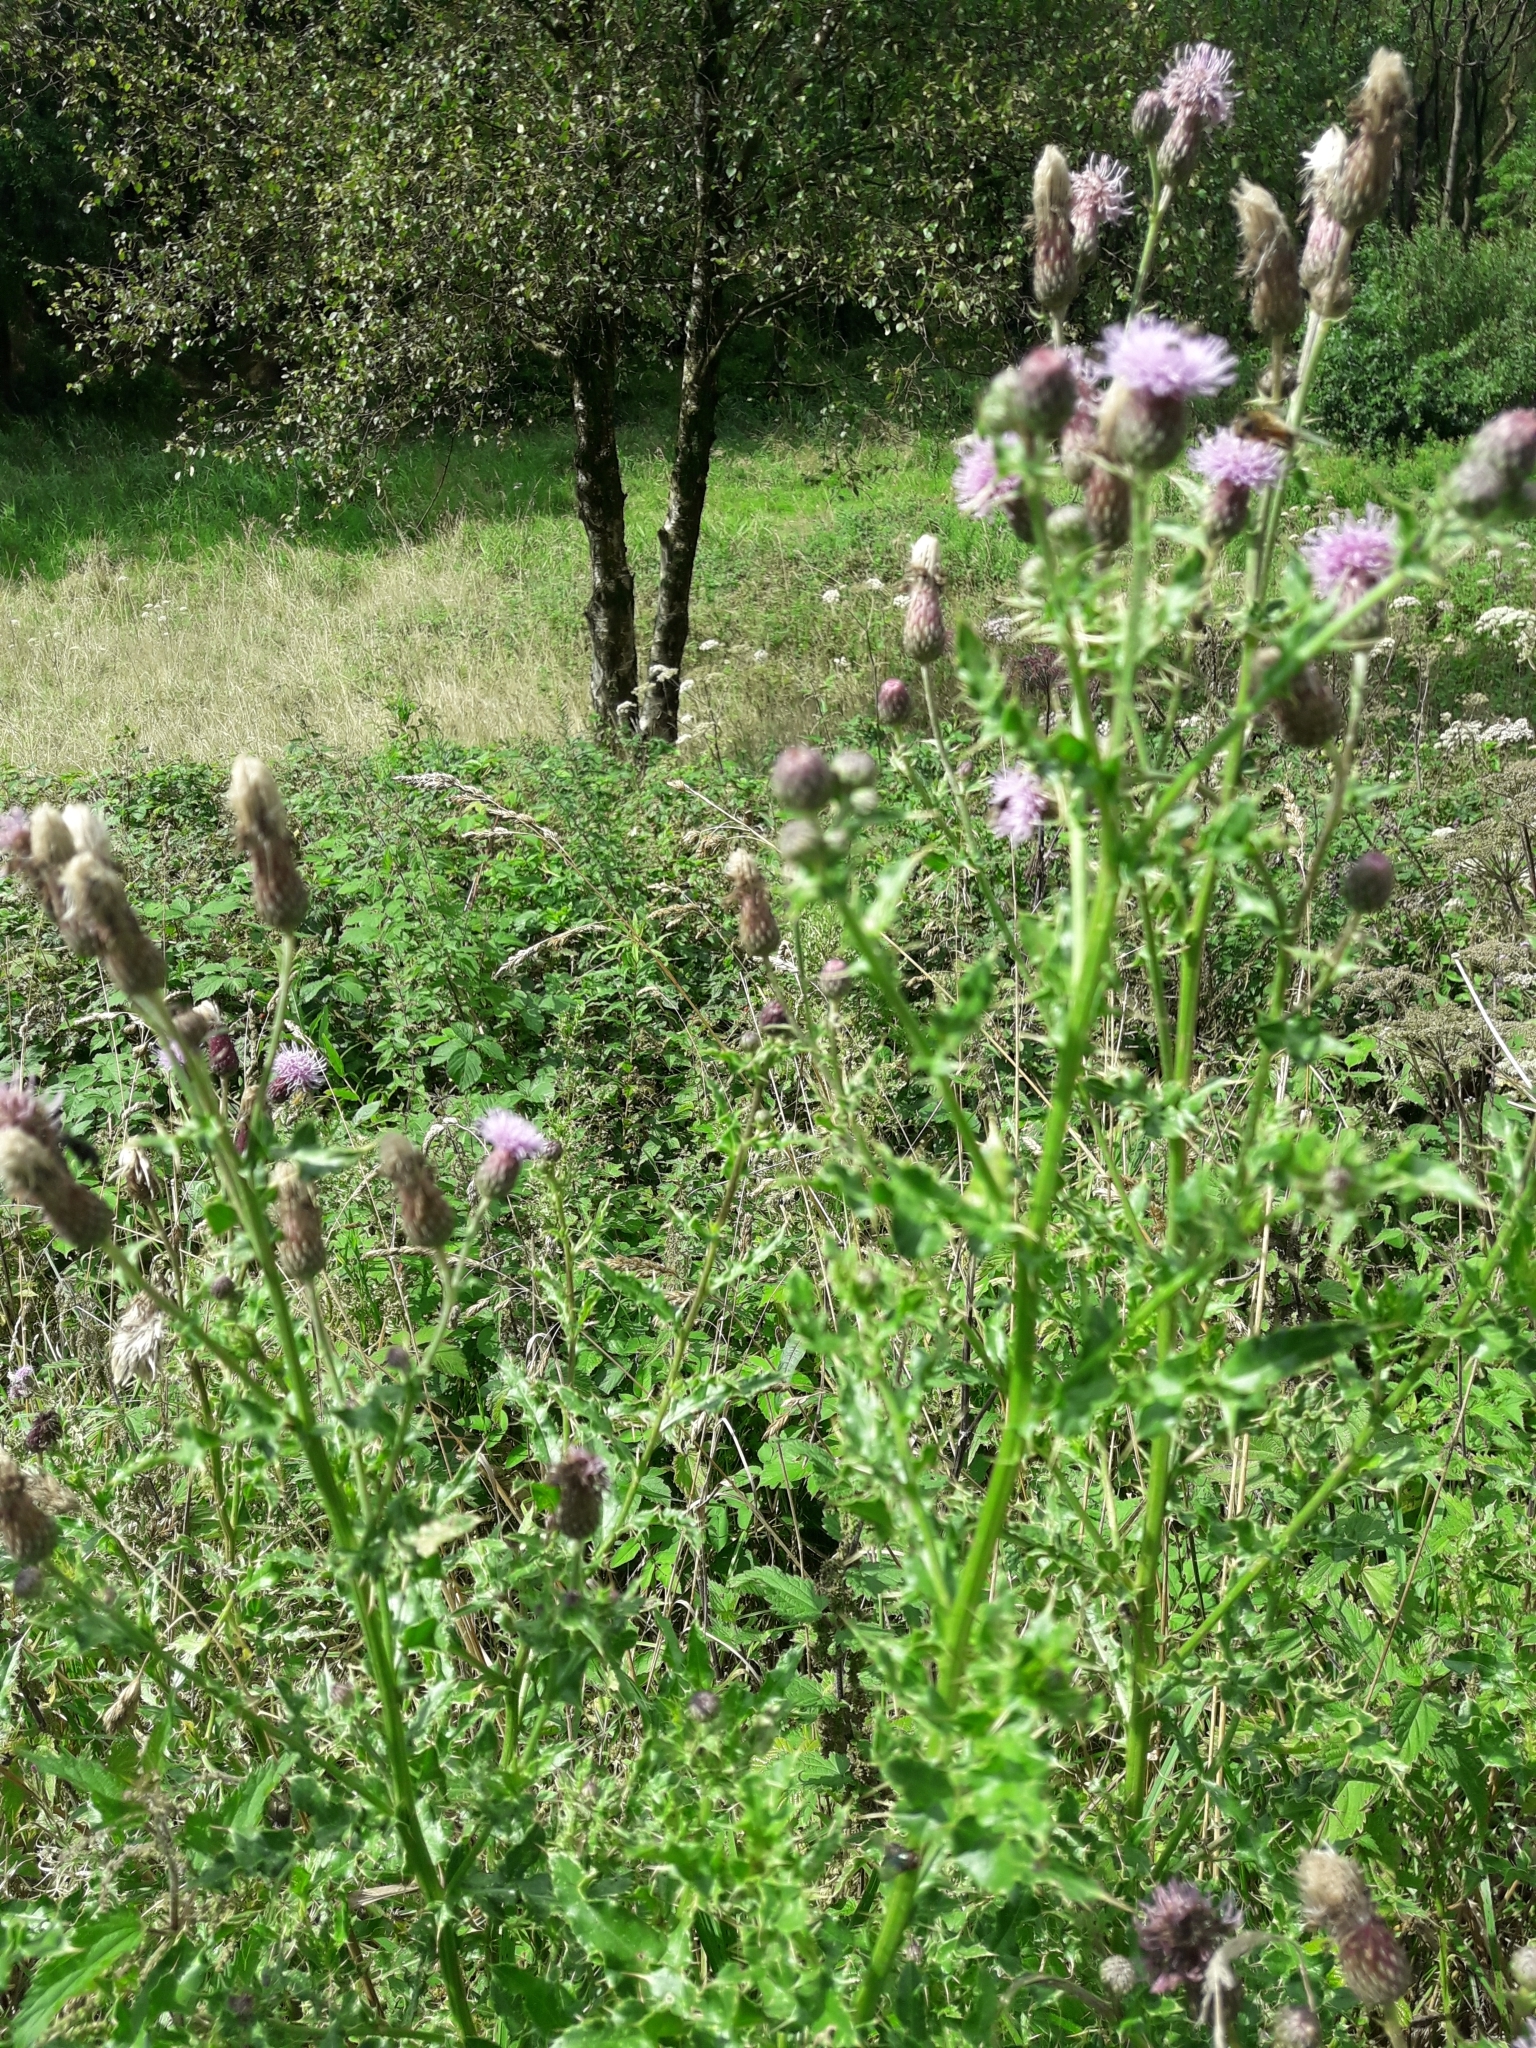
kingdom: Plantae
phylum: Tracheophyta
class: Magnoliopsida
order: Asterales
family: Asteraceae
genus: Cirsium
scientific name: Cirsium arvense
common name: Creeping thistle
